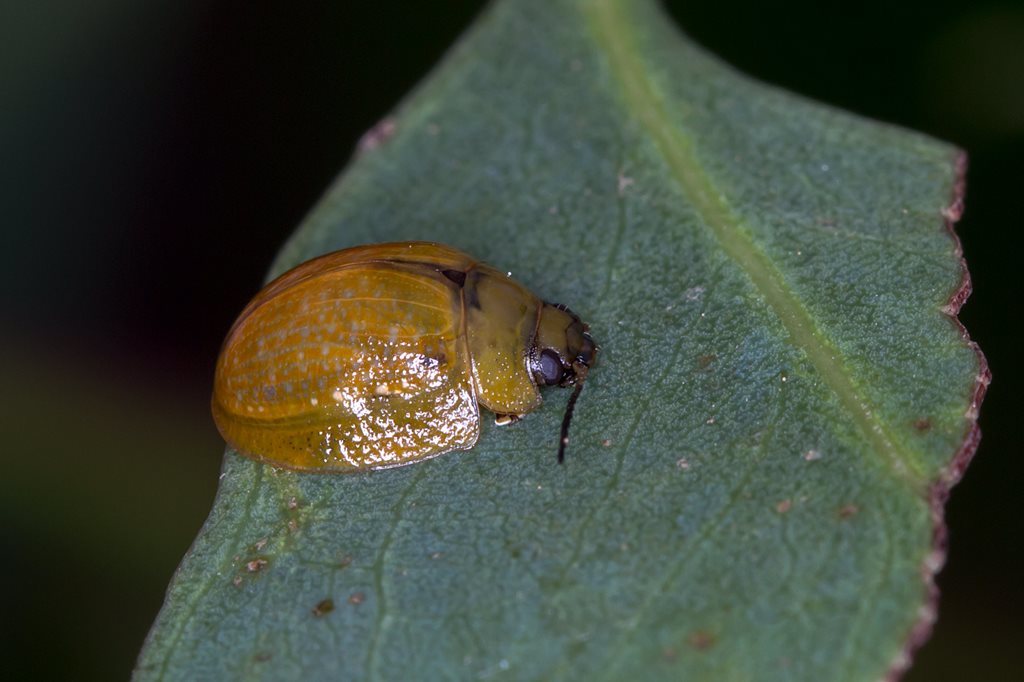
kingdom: Animalia
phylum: Arthropoda
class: Insecta
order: Coleoptera
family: Chrysomelidae
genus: Paropsisterna
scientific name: Paropsisterna cloelia
